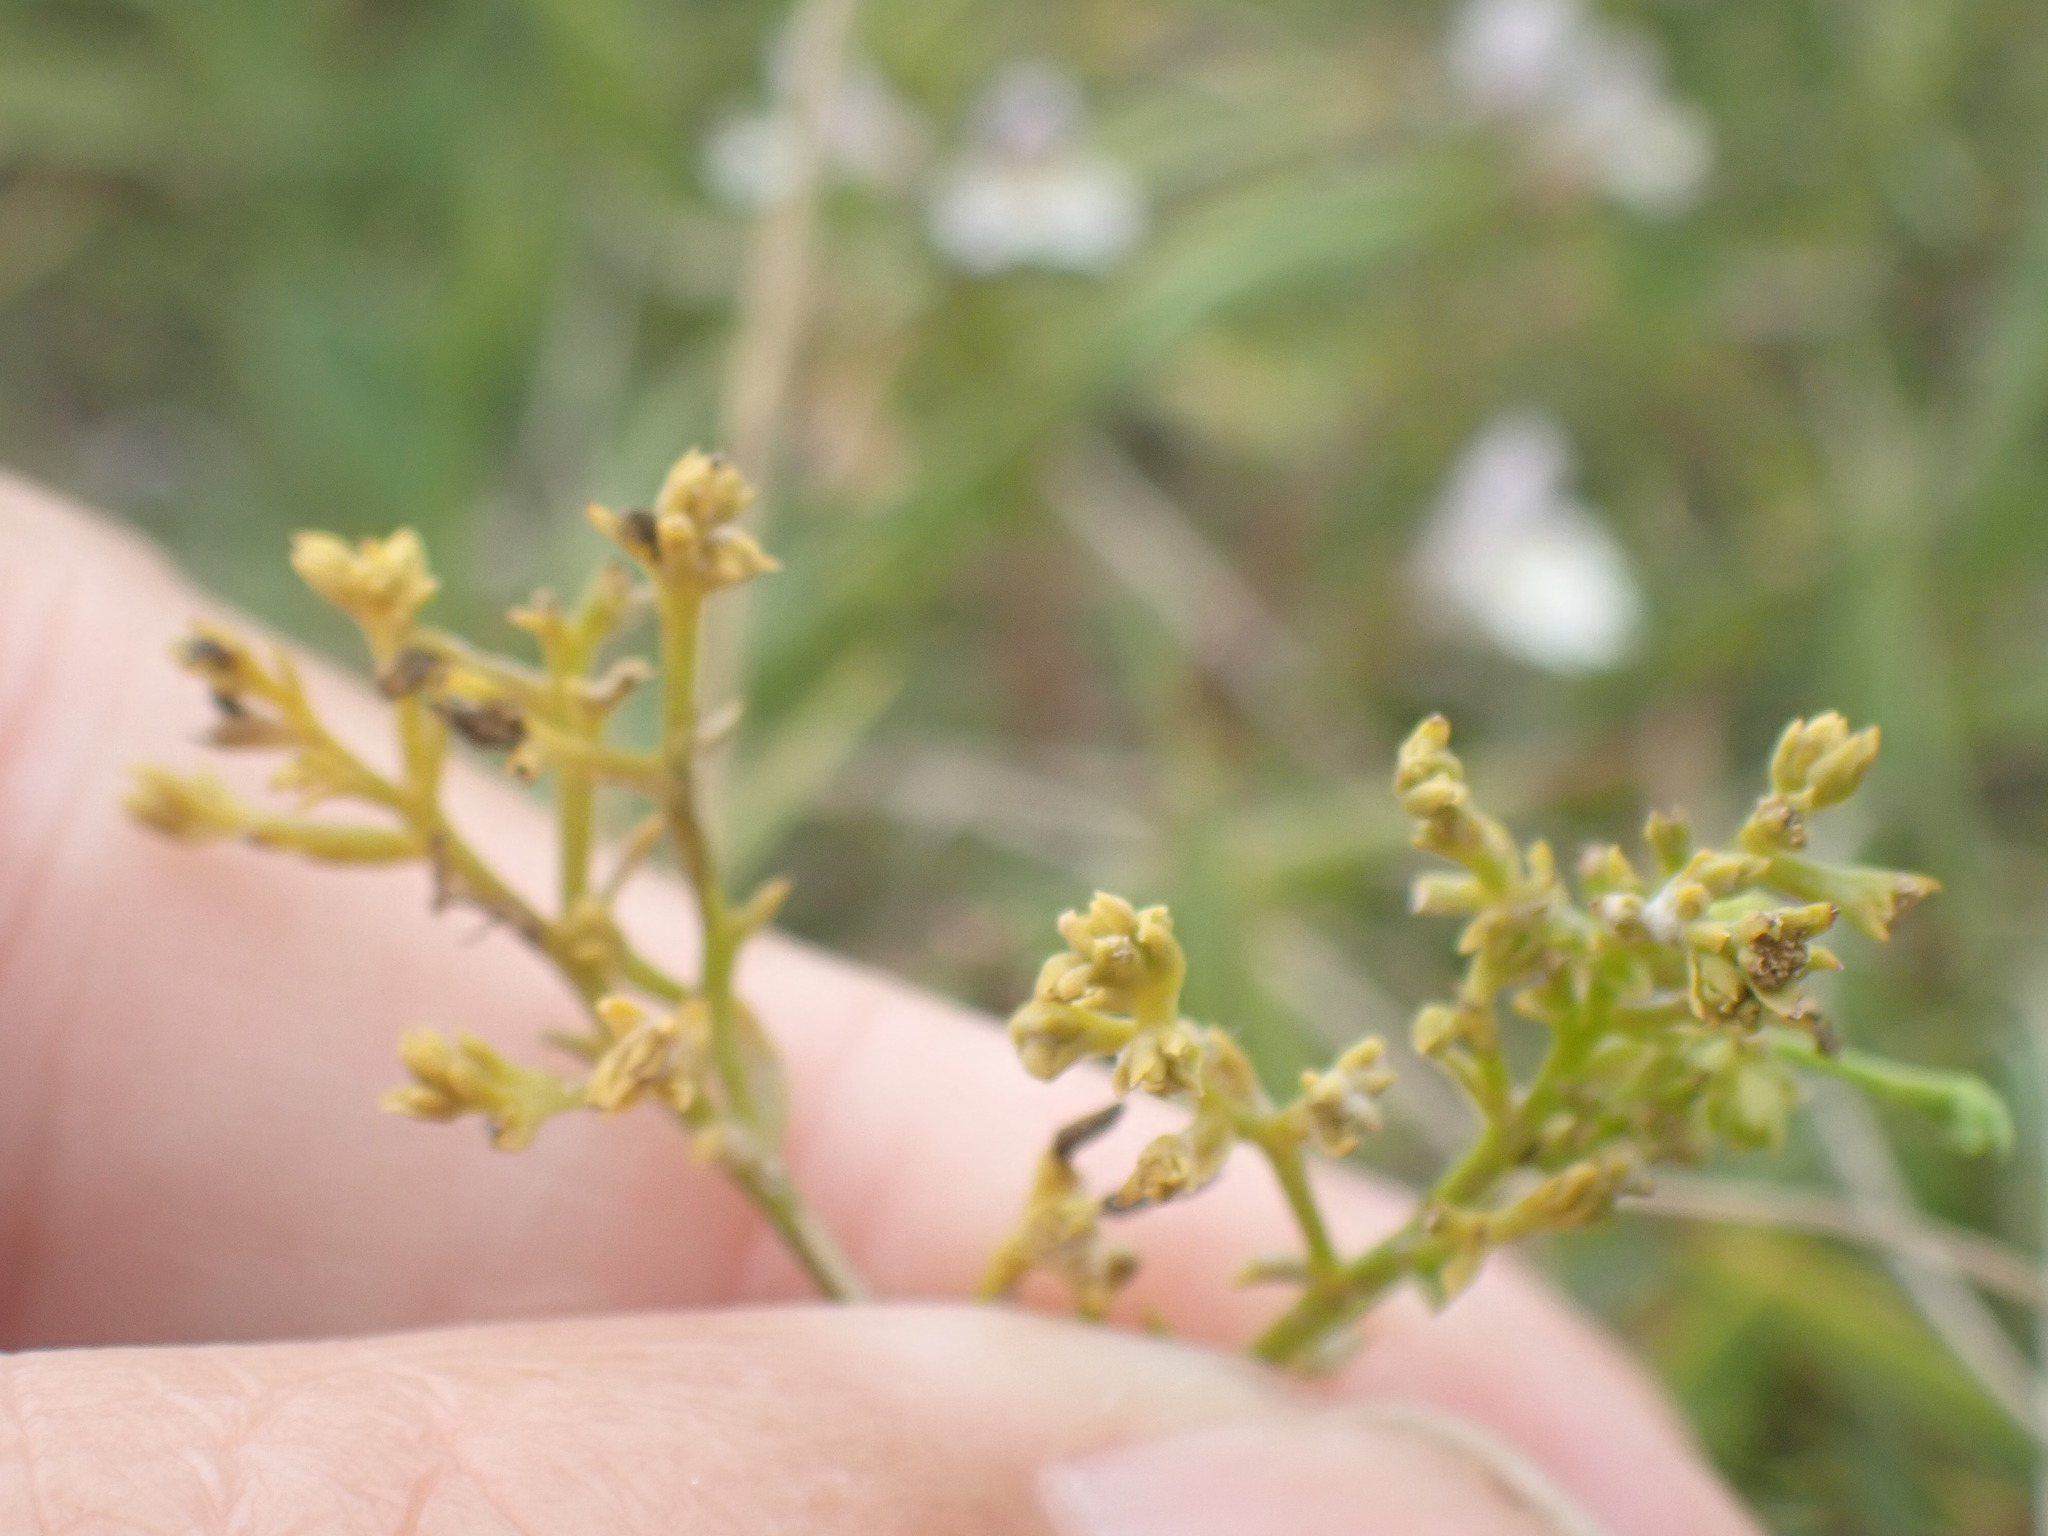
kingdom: Plantae
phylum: Tracheophyta
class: Magnoliopsida
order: Santalales
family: Thesiaceae
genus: Thesium
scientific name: Thesium humifusum
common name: Bastard-toadflax
